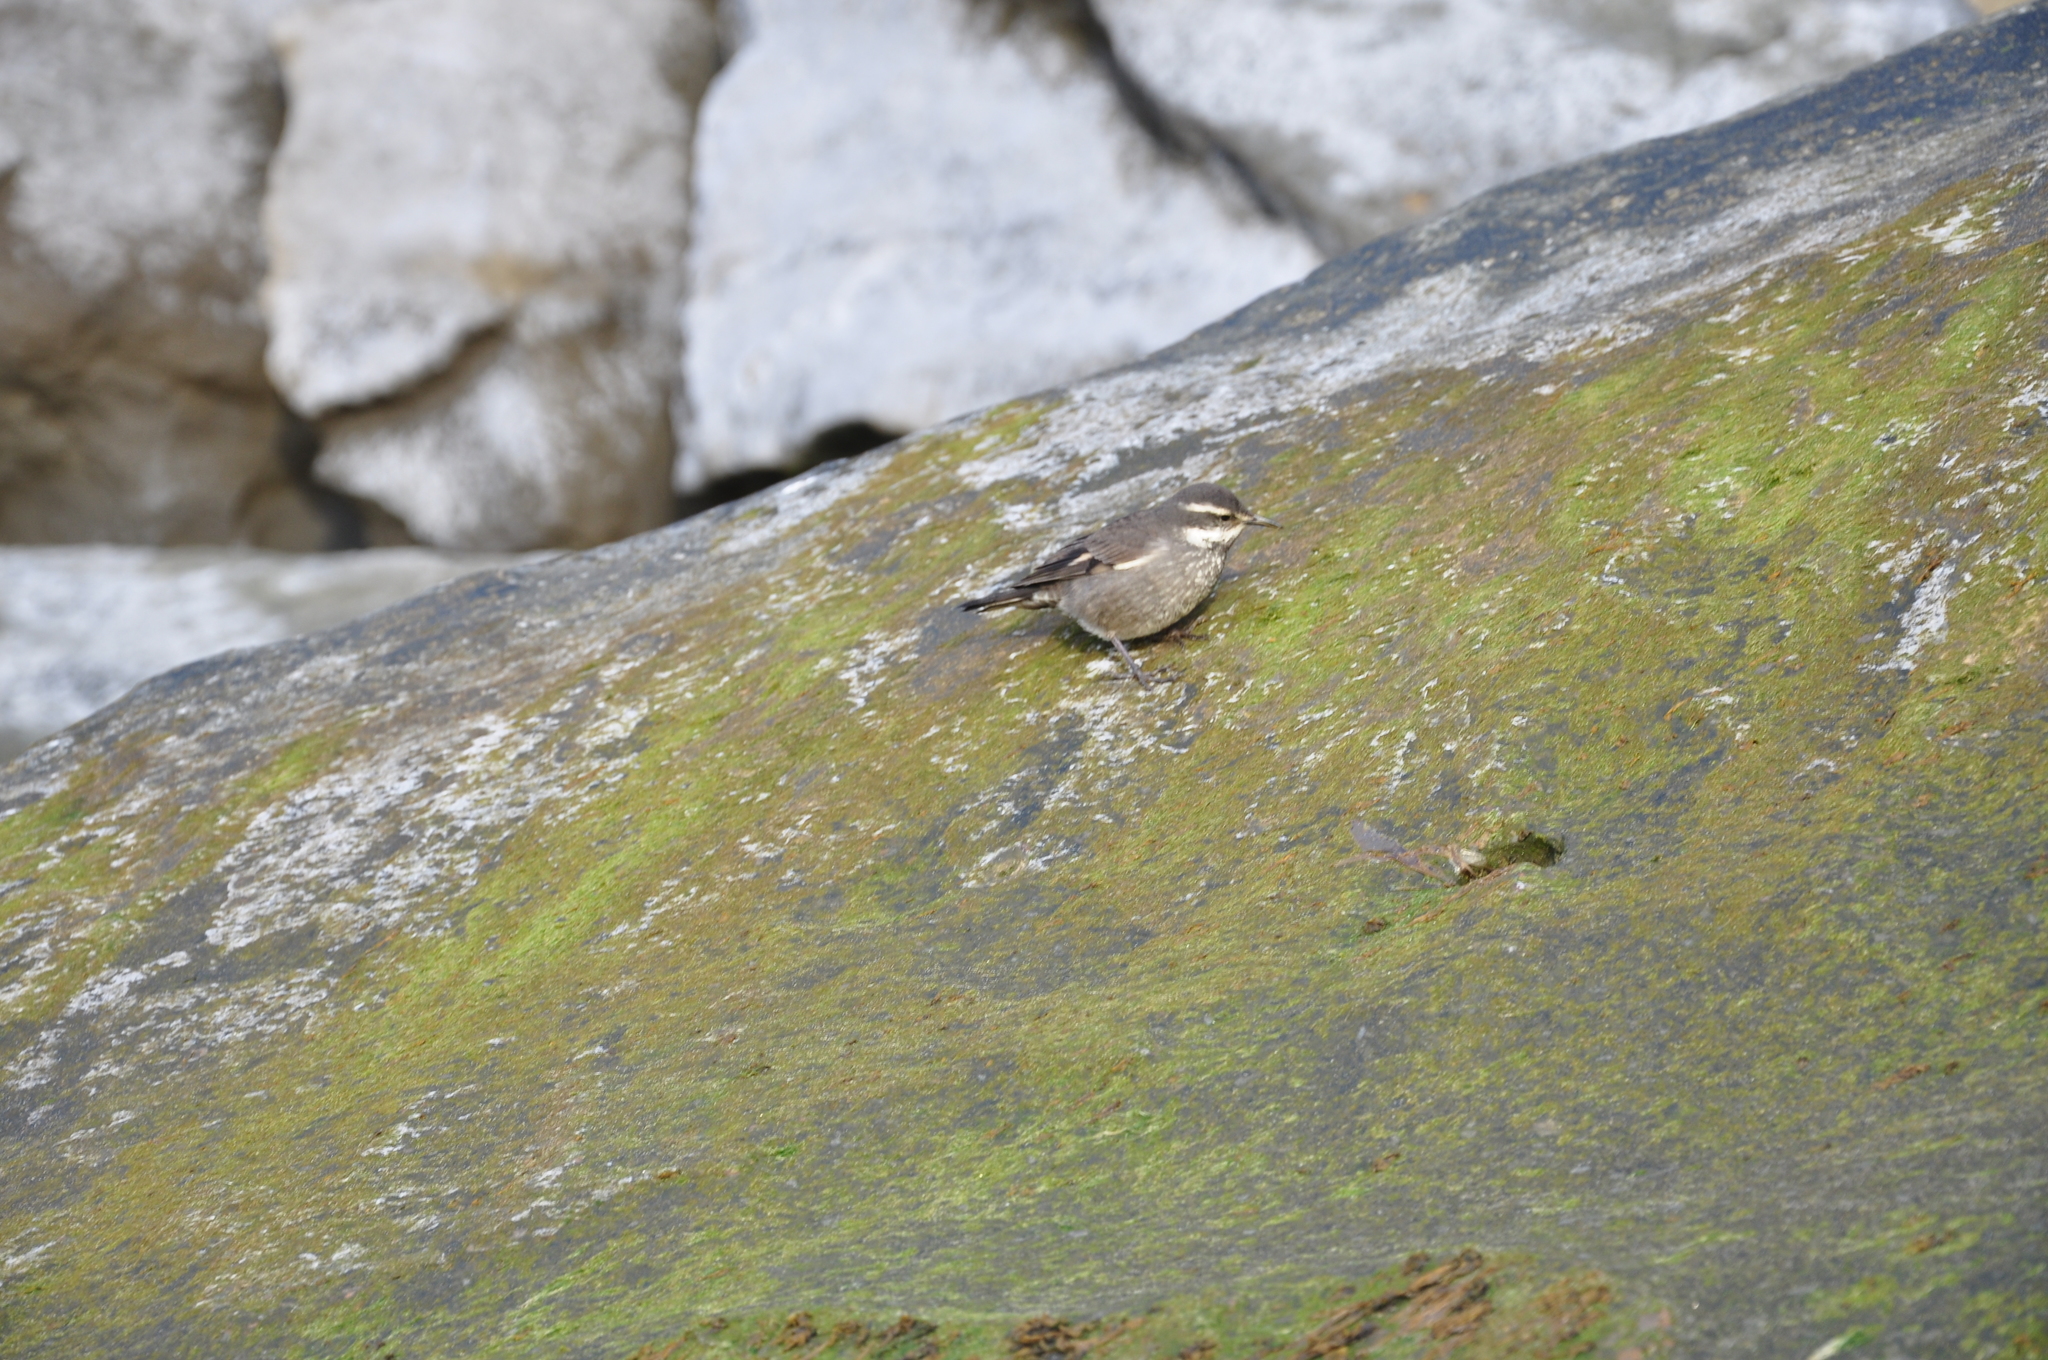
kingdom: Animalia
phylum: Chordata
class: Aves
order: Passeriformes
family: Furnariidae
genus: Cinclodes
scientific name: Cinclodes oustaleti
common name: Grey-flanked cinclodes
